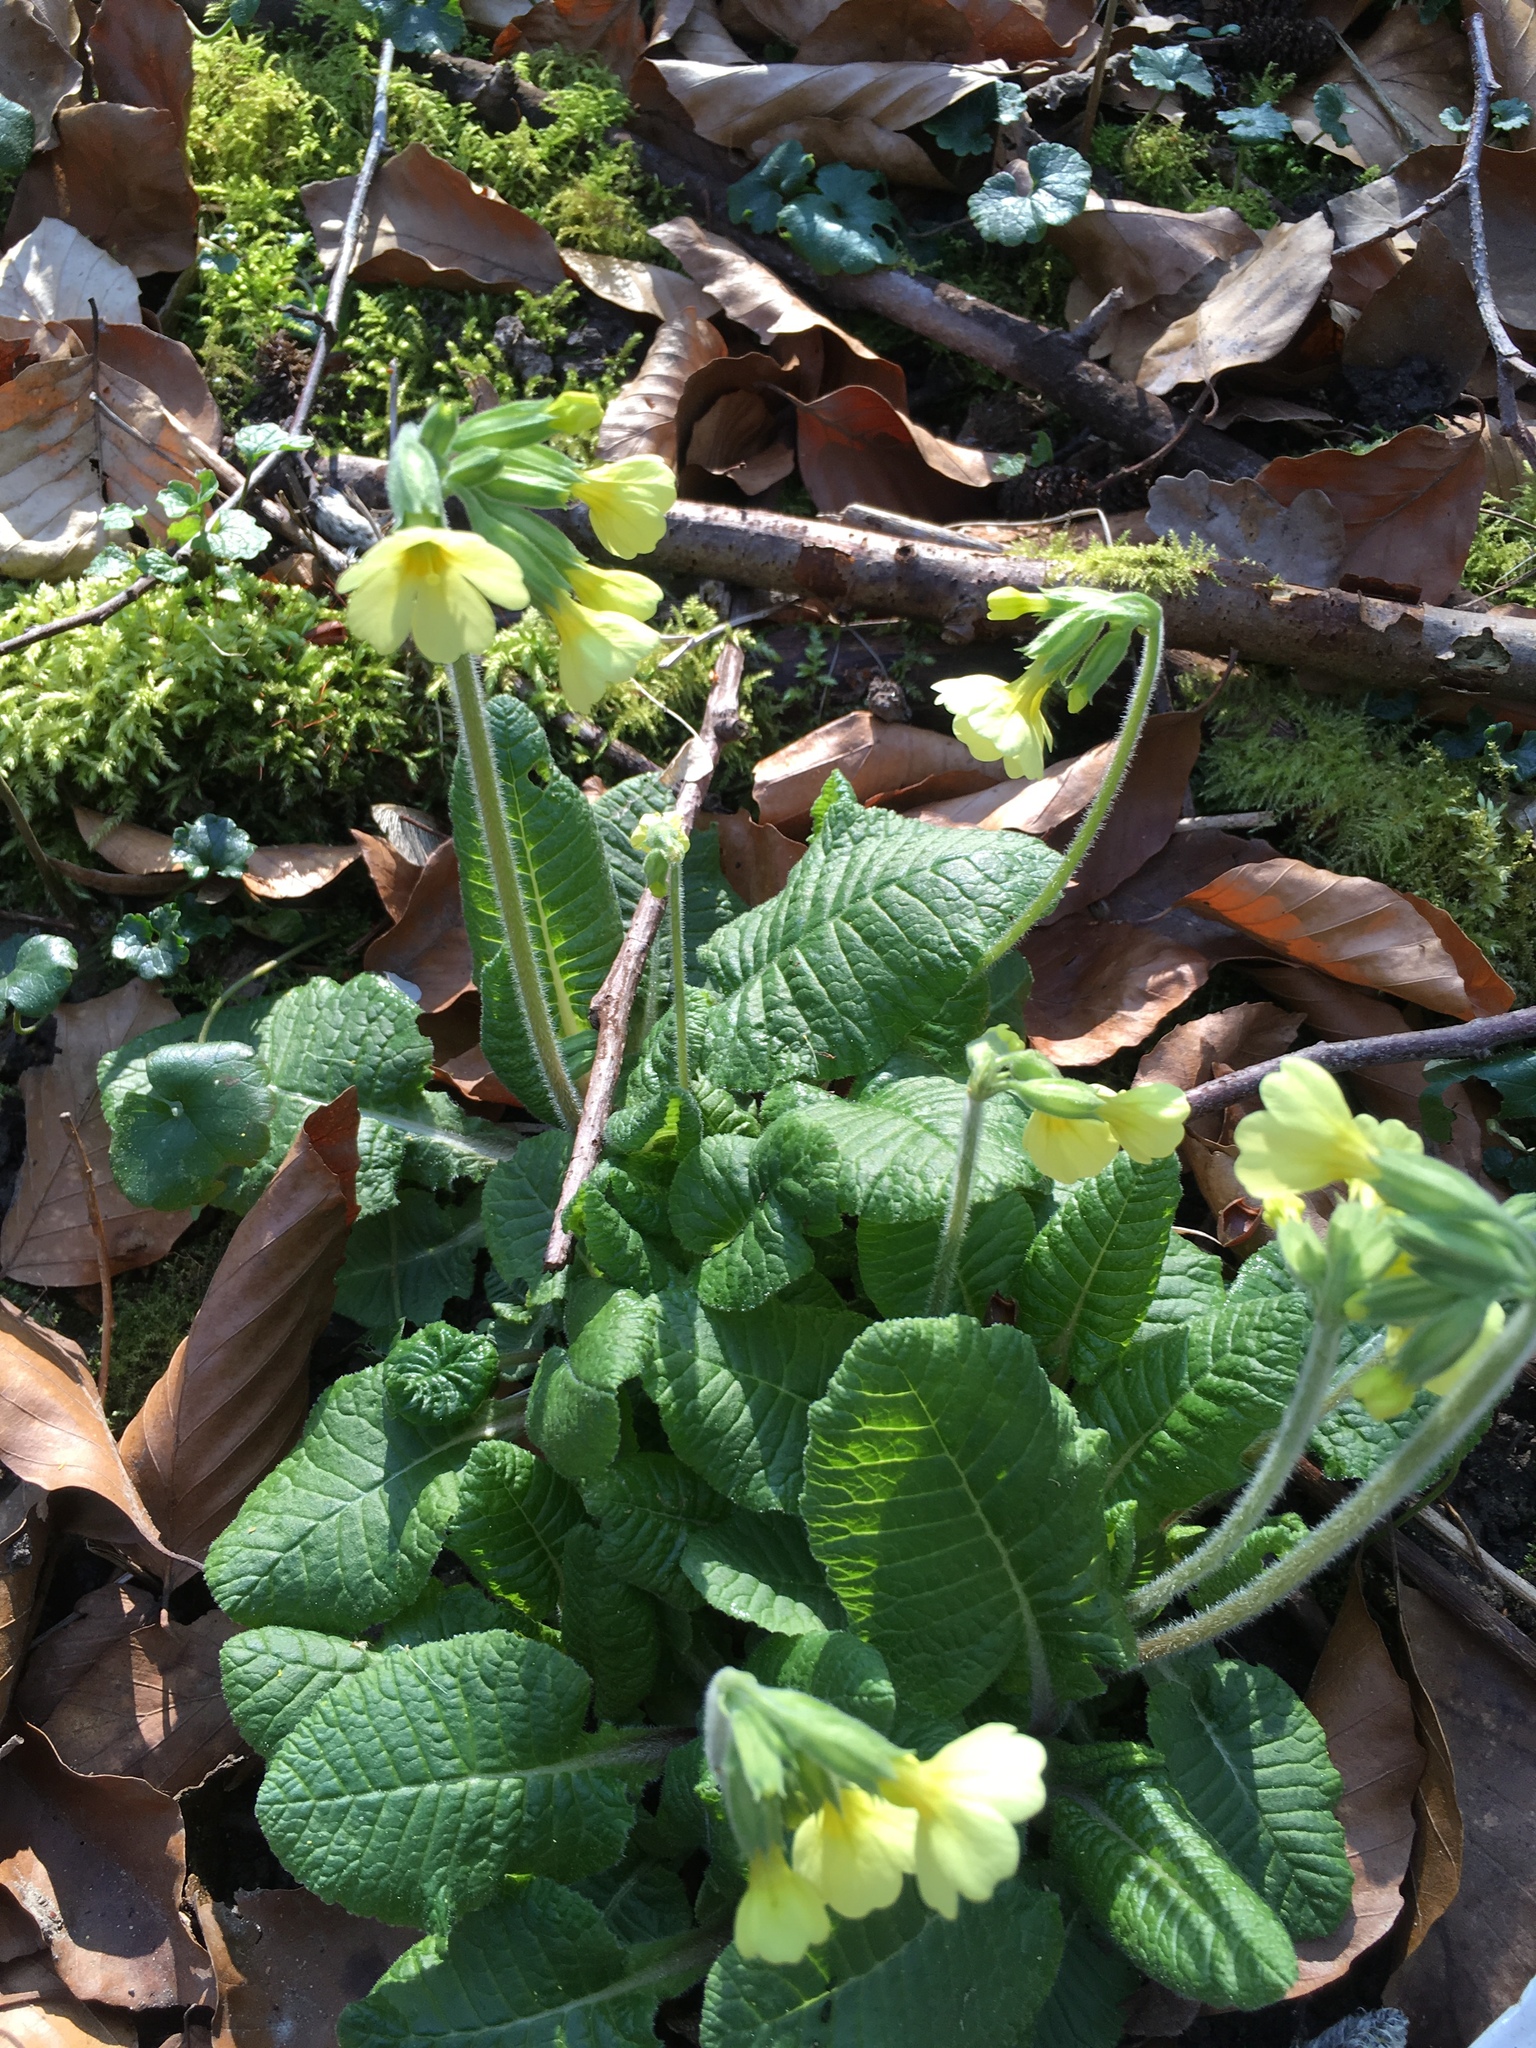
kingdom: Plantae
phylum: Tracheophyta
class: Magnoliopsida
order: Ericales
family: Primulaceae
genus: Primula
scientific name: Primula elatior
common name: Oxlip
